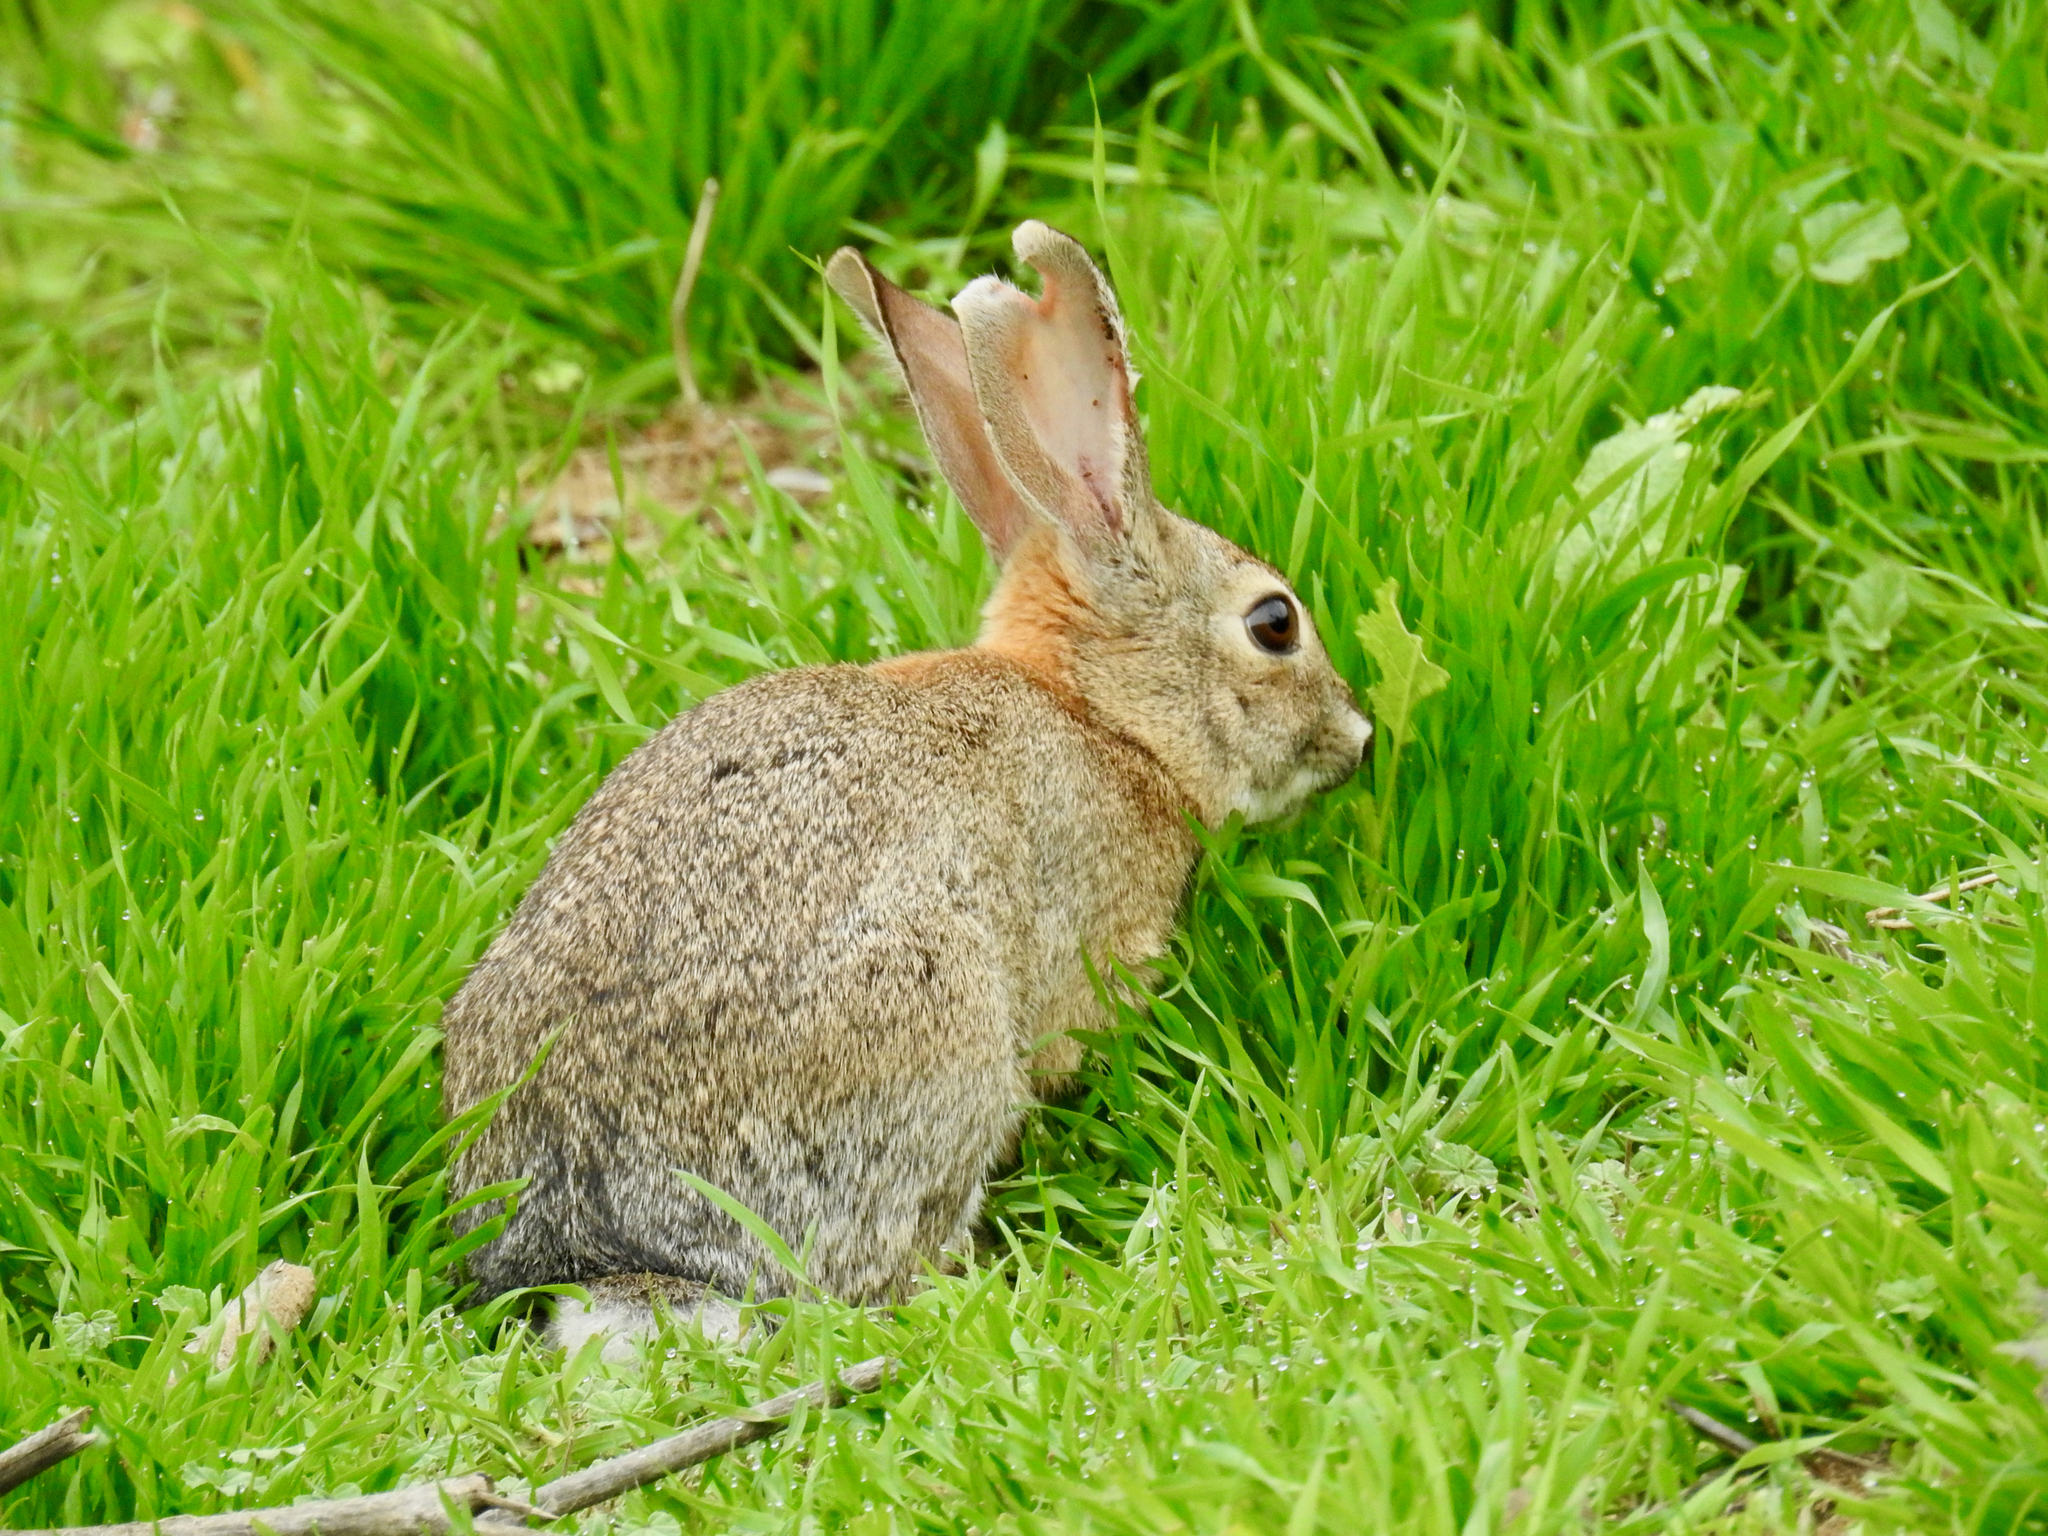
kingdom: Animalia
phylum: Chordata
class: Mammalia
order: Lagomorpha
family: Leporidae
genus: Sylvilagus
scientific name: Sylvilagus audubonii
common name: Desert cottontail
